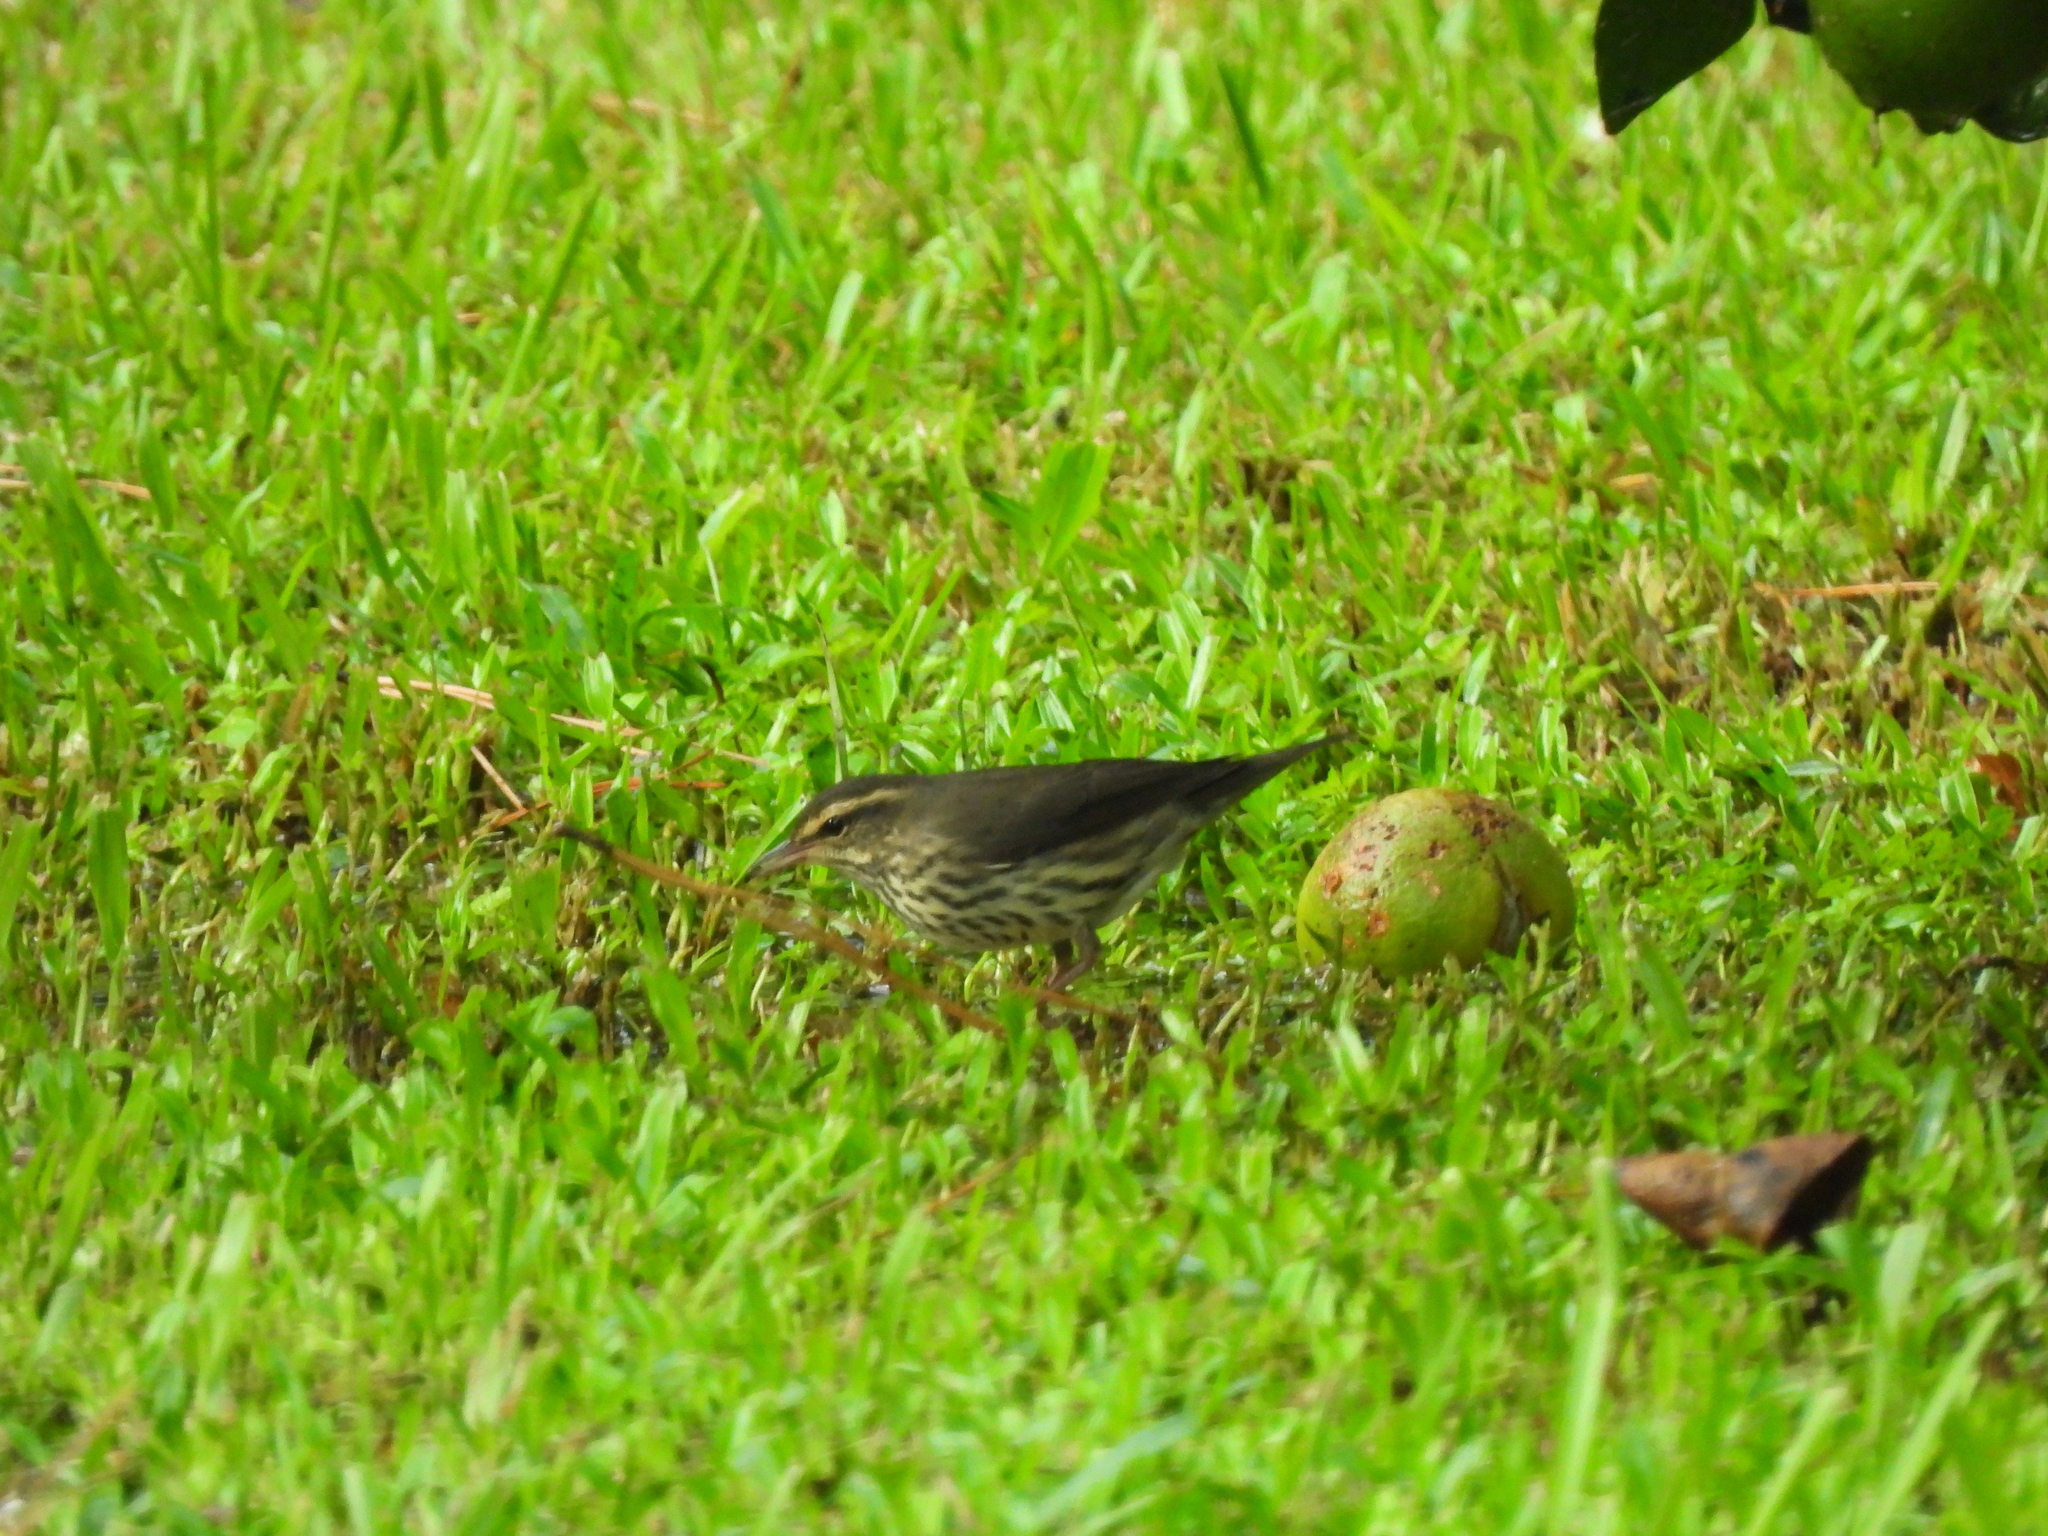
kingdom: Animalia
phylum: Chordata
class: Aves
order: Passeriformes
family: Parulidae
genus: Parkesia
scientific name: Parkesia noveboracensis
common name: Northern waterthrush
